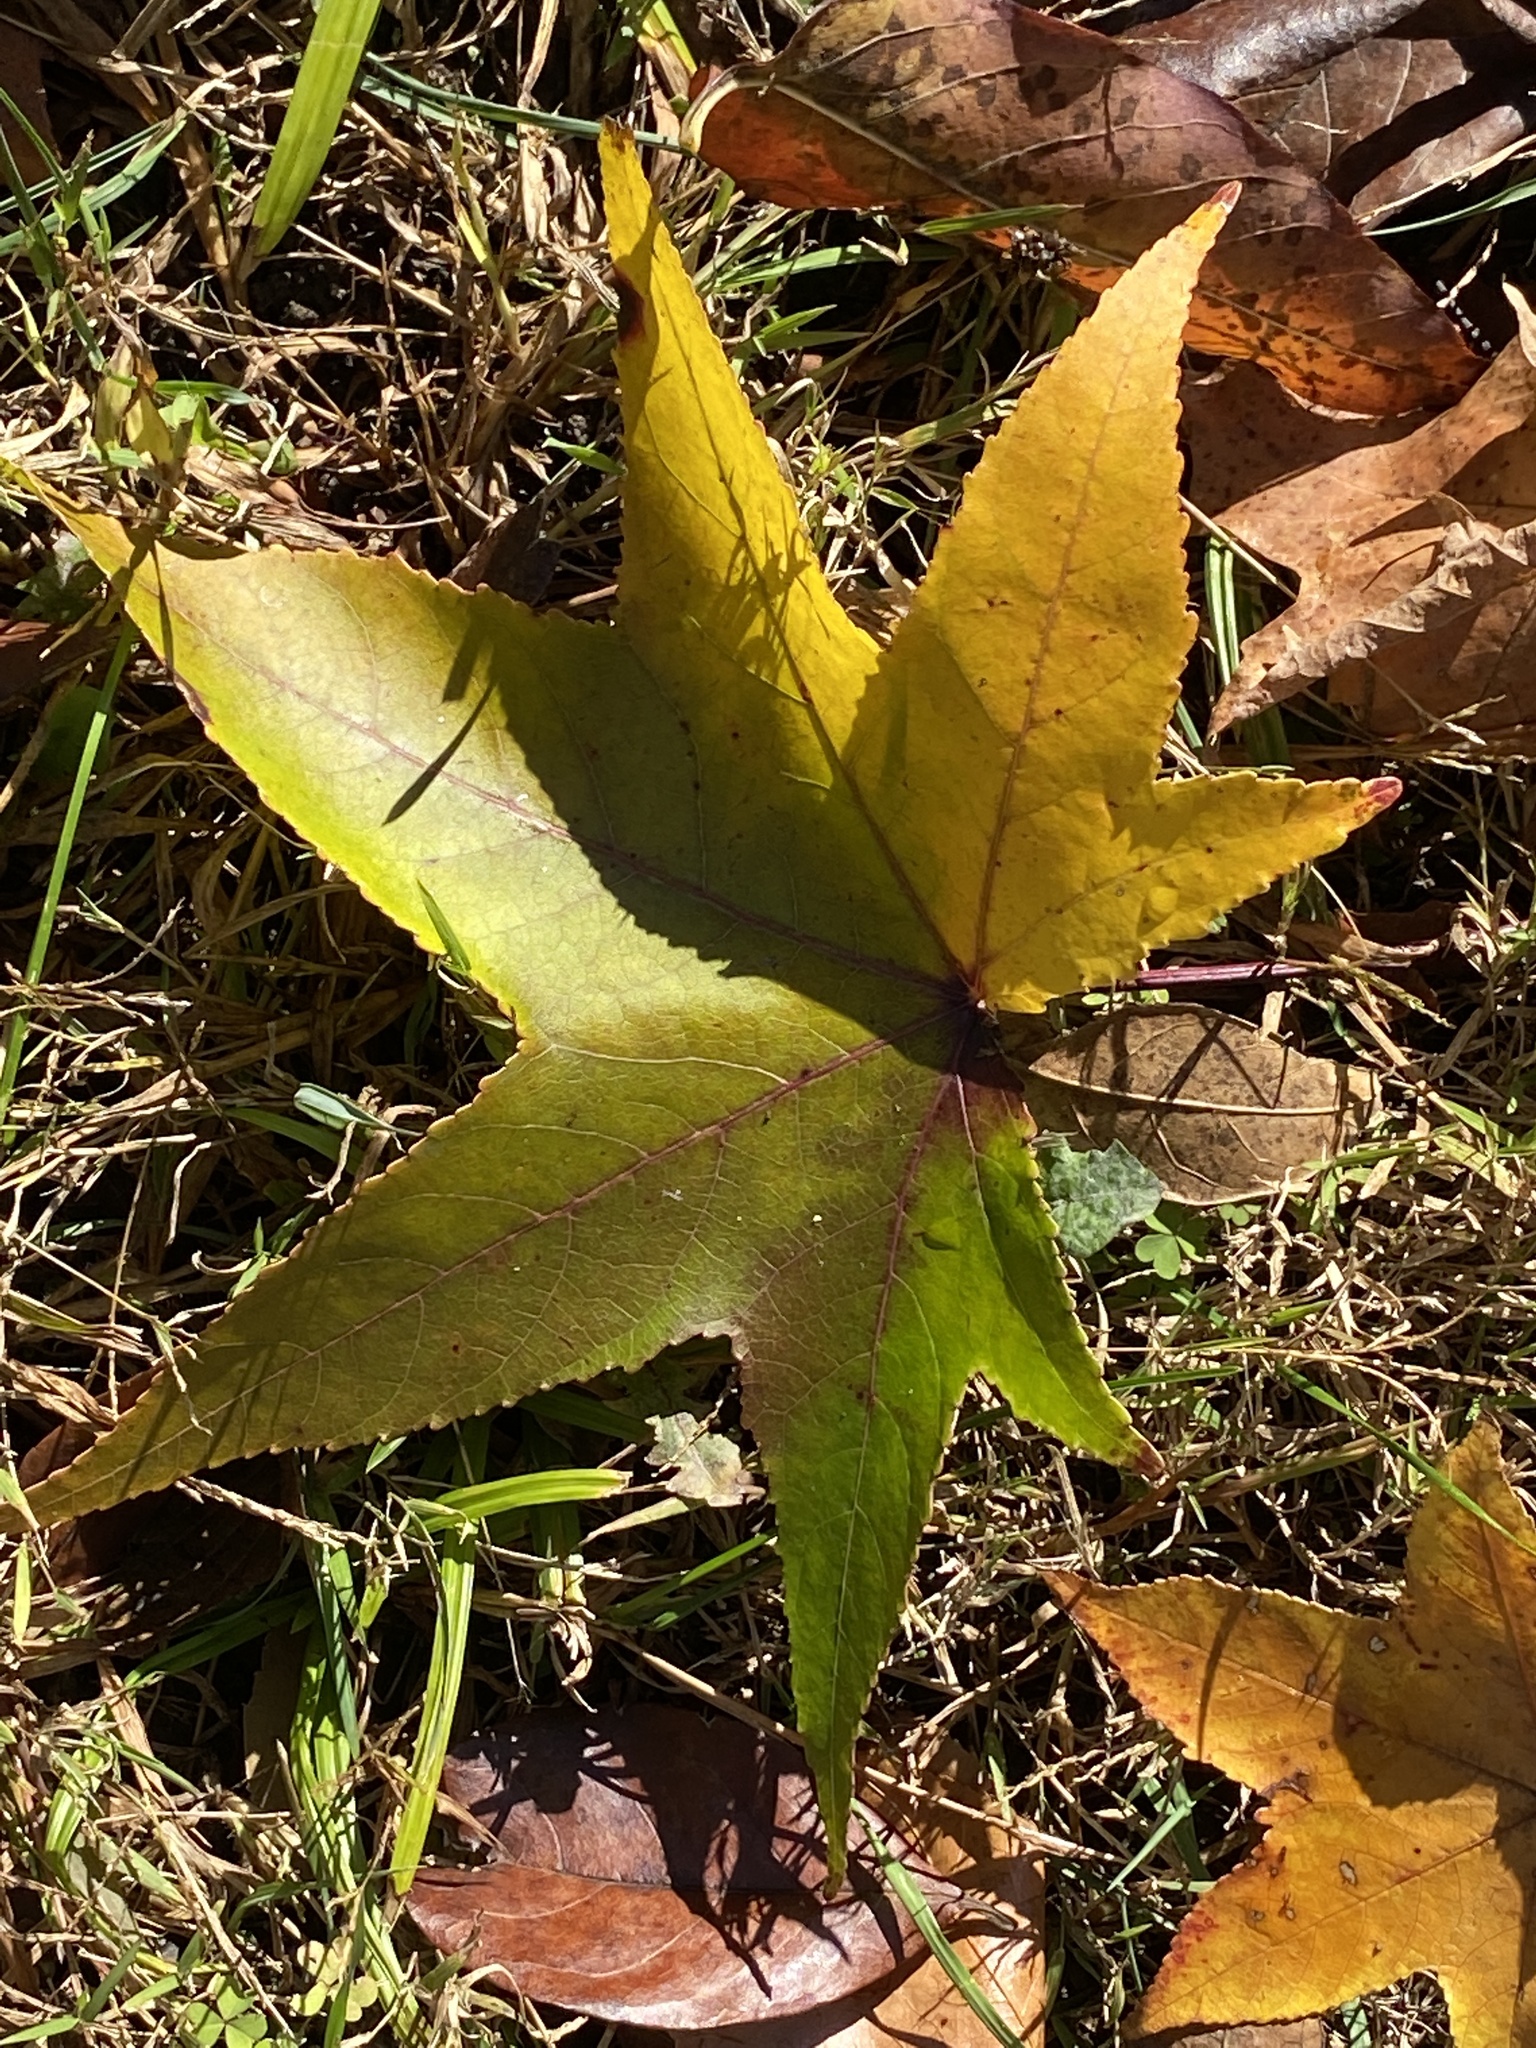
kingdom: Plantae
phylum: Tracheophyta
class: Magnoliopsida
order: Saxifragales
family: Altingiaceae
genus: Liquidambar
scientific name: Liquidambar styraciflua
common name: Sweet gum
